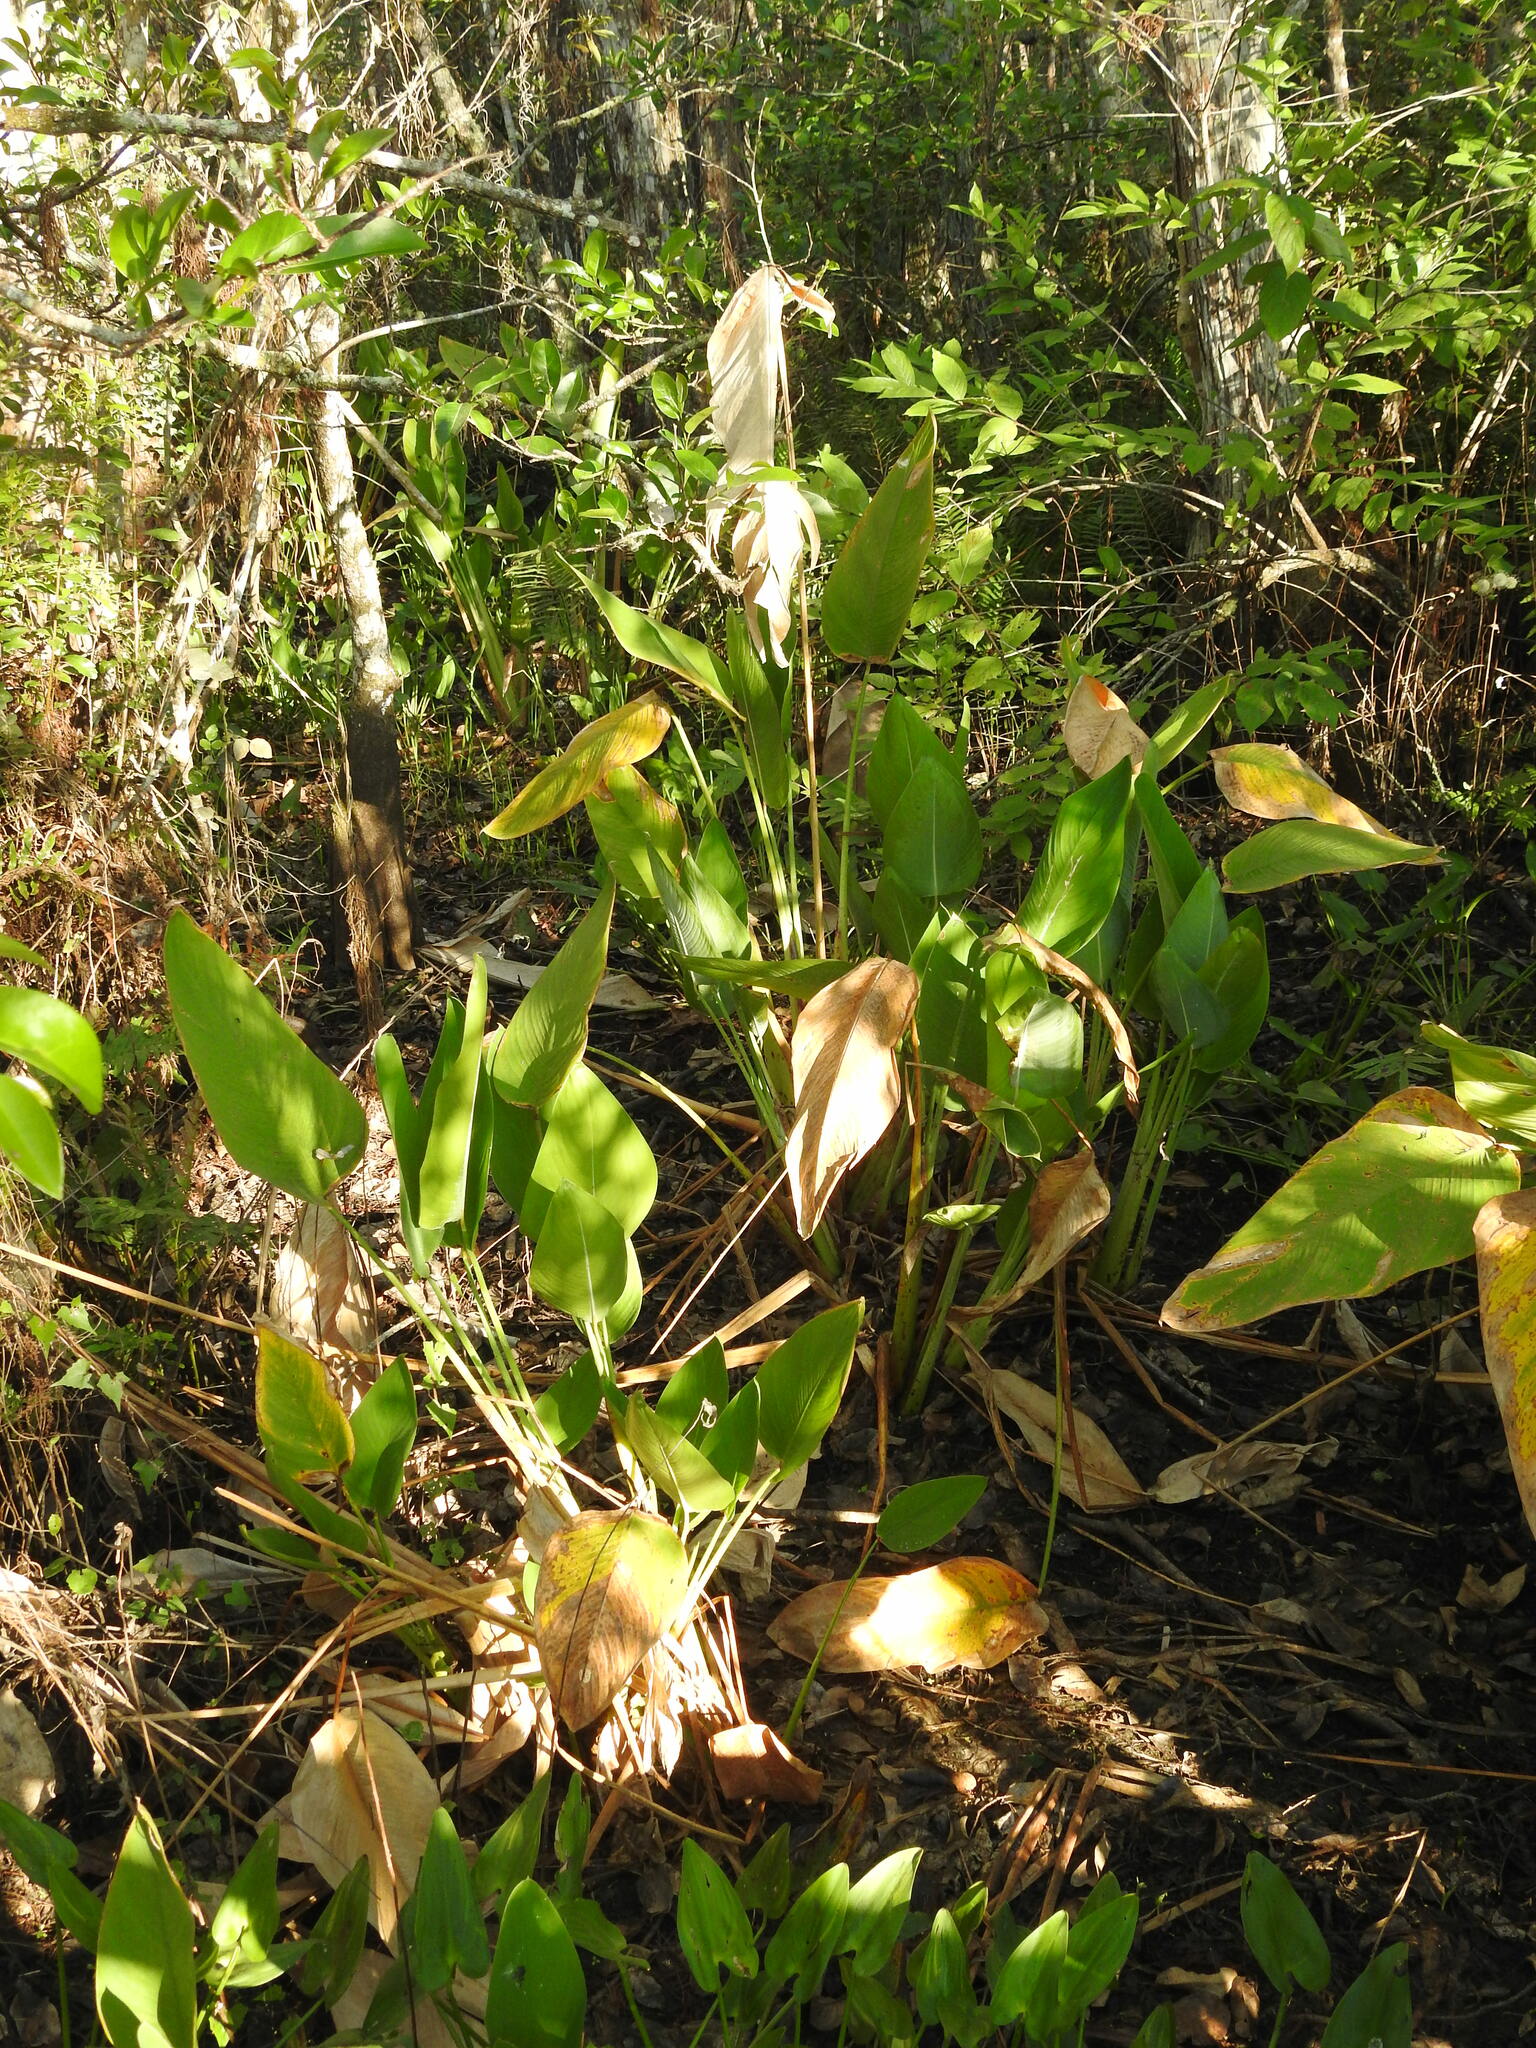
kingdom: Plantae
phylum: Tracheophyta
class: Liliopsida
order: Zingiberales
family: Marantaceae
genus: Thalia
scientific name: Thalia geniculata
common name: Arrowroot
